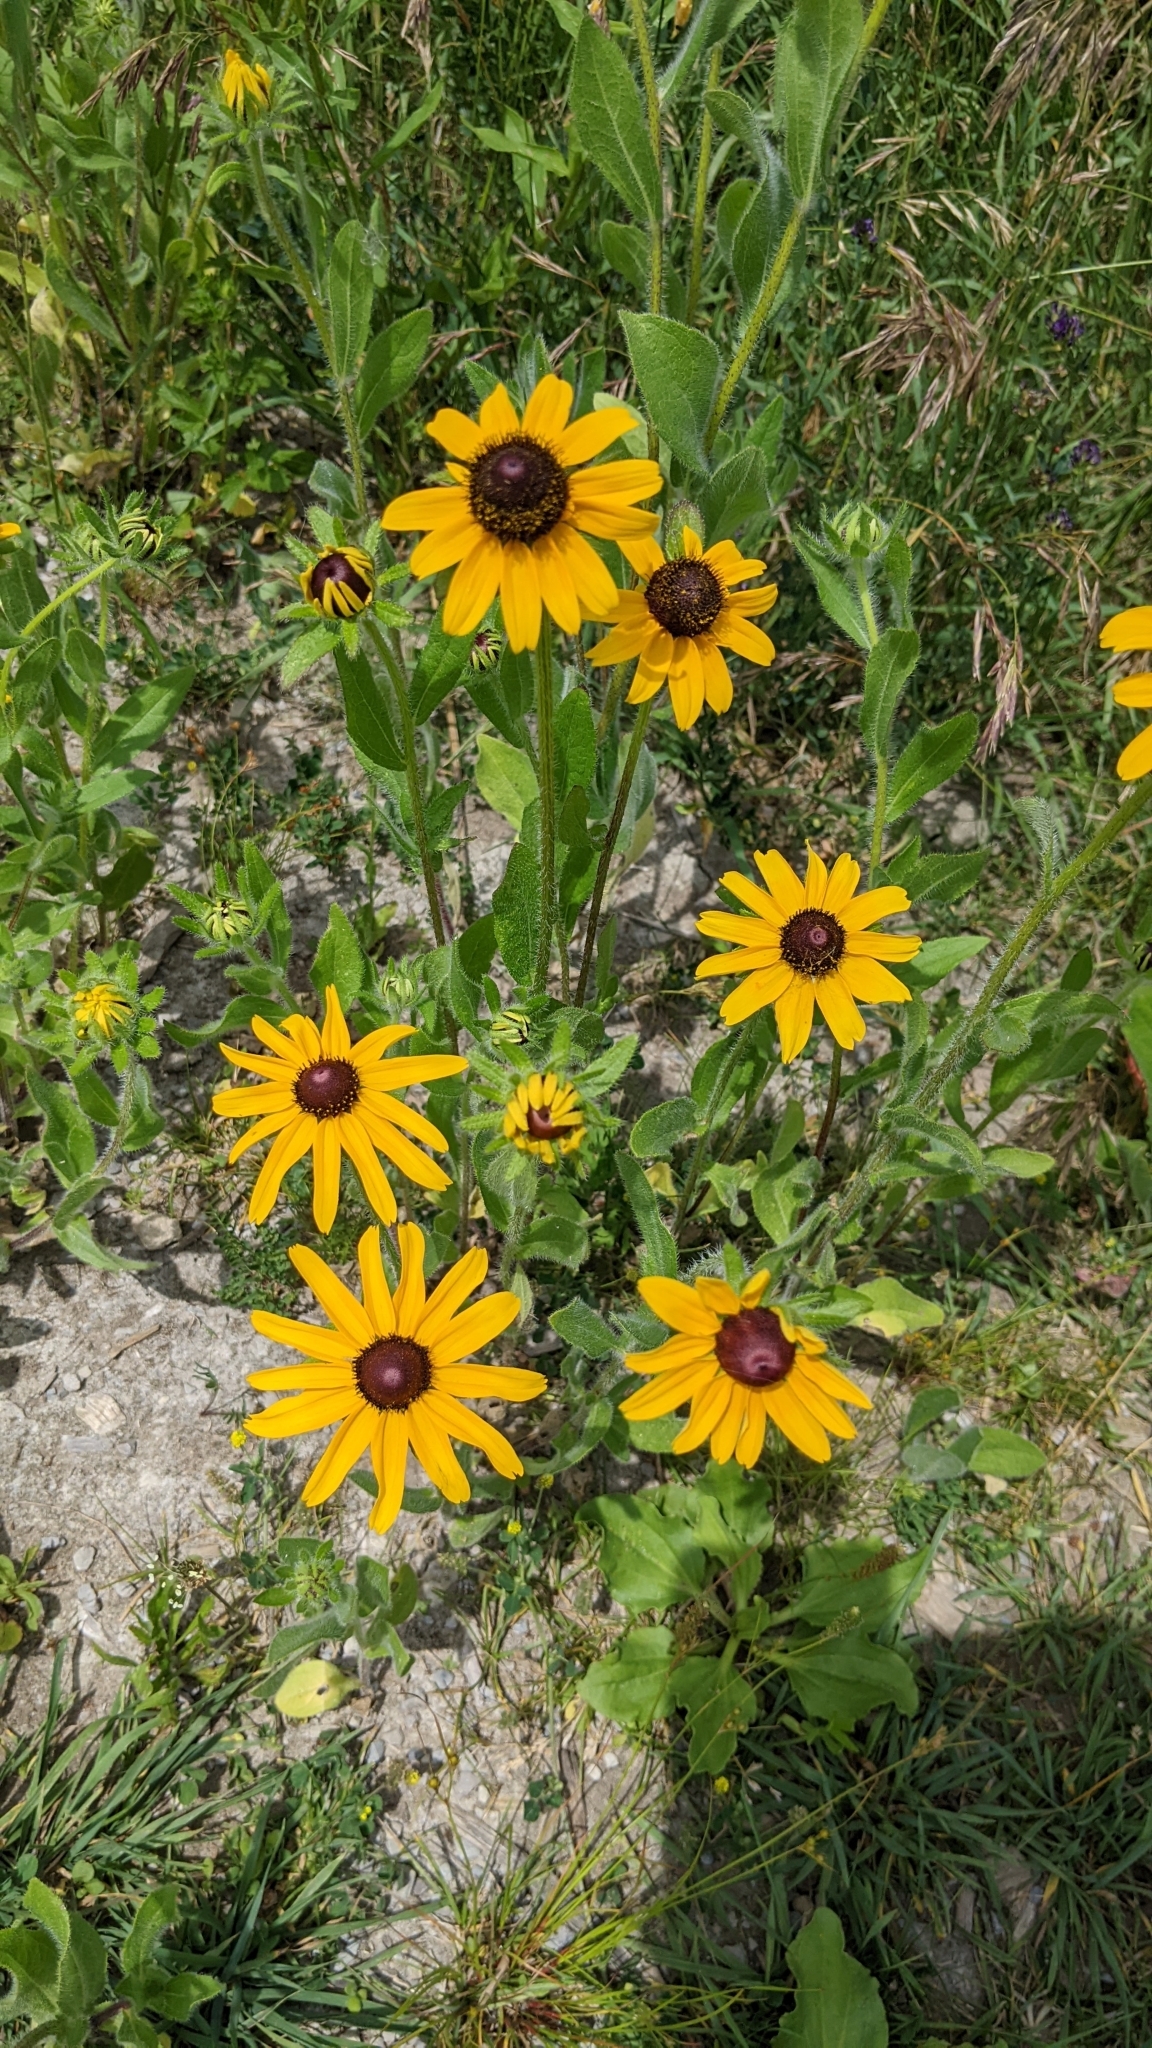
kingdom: Plantae
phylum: Tracheophyta
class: Magnoliopsida
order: Asterales
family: Asteraceae
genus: Rudbeckia
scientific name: Rudbeckia hirta
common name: Black-eyed-susan
